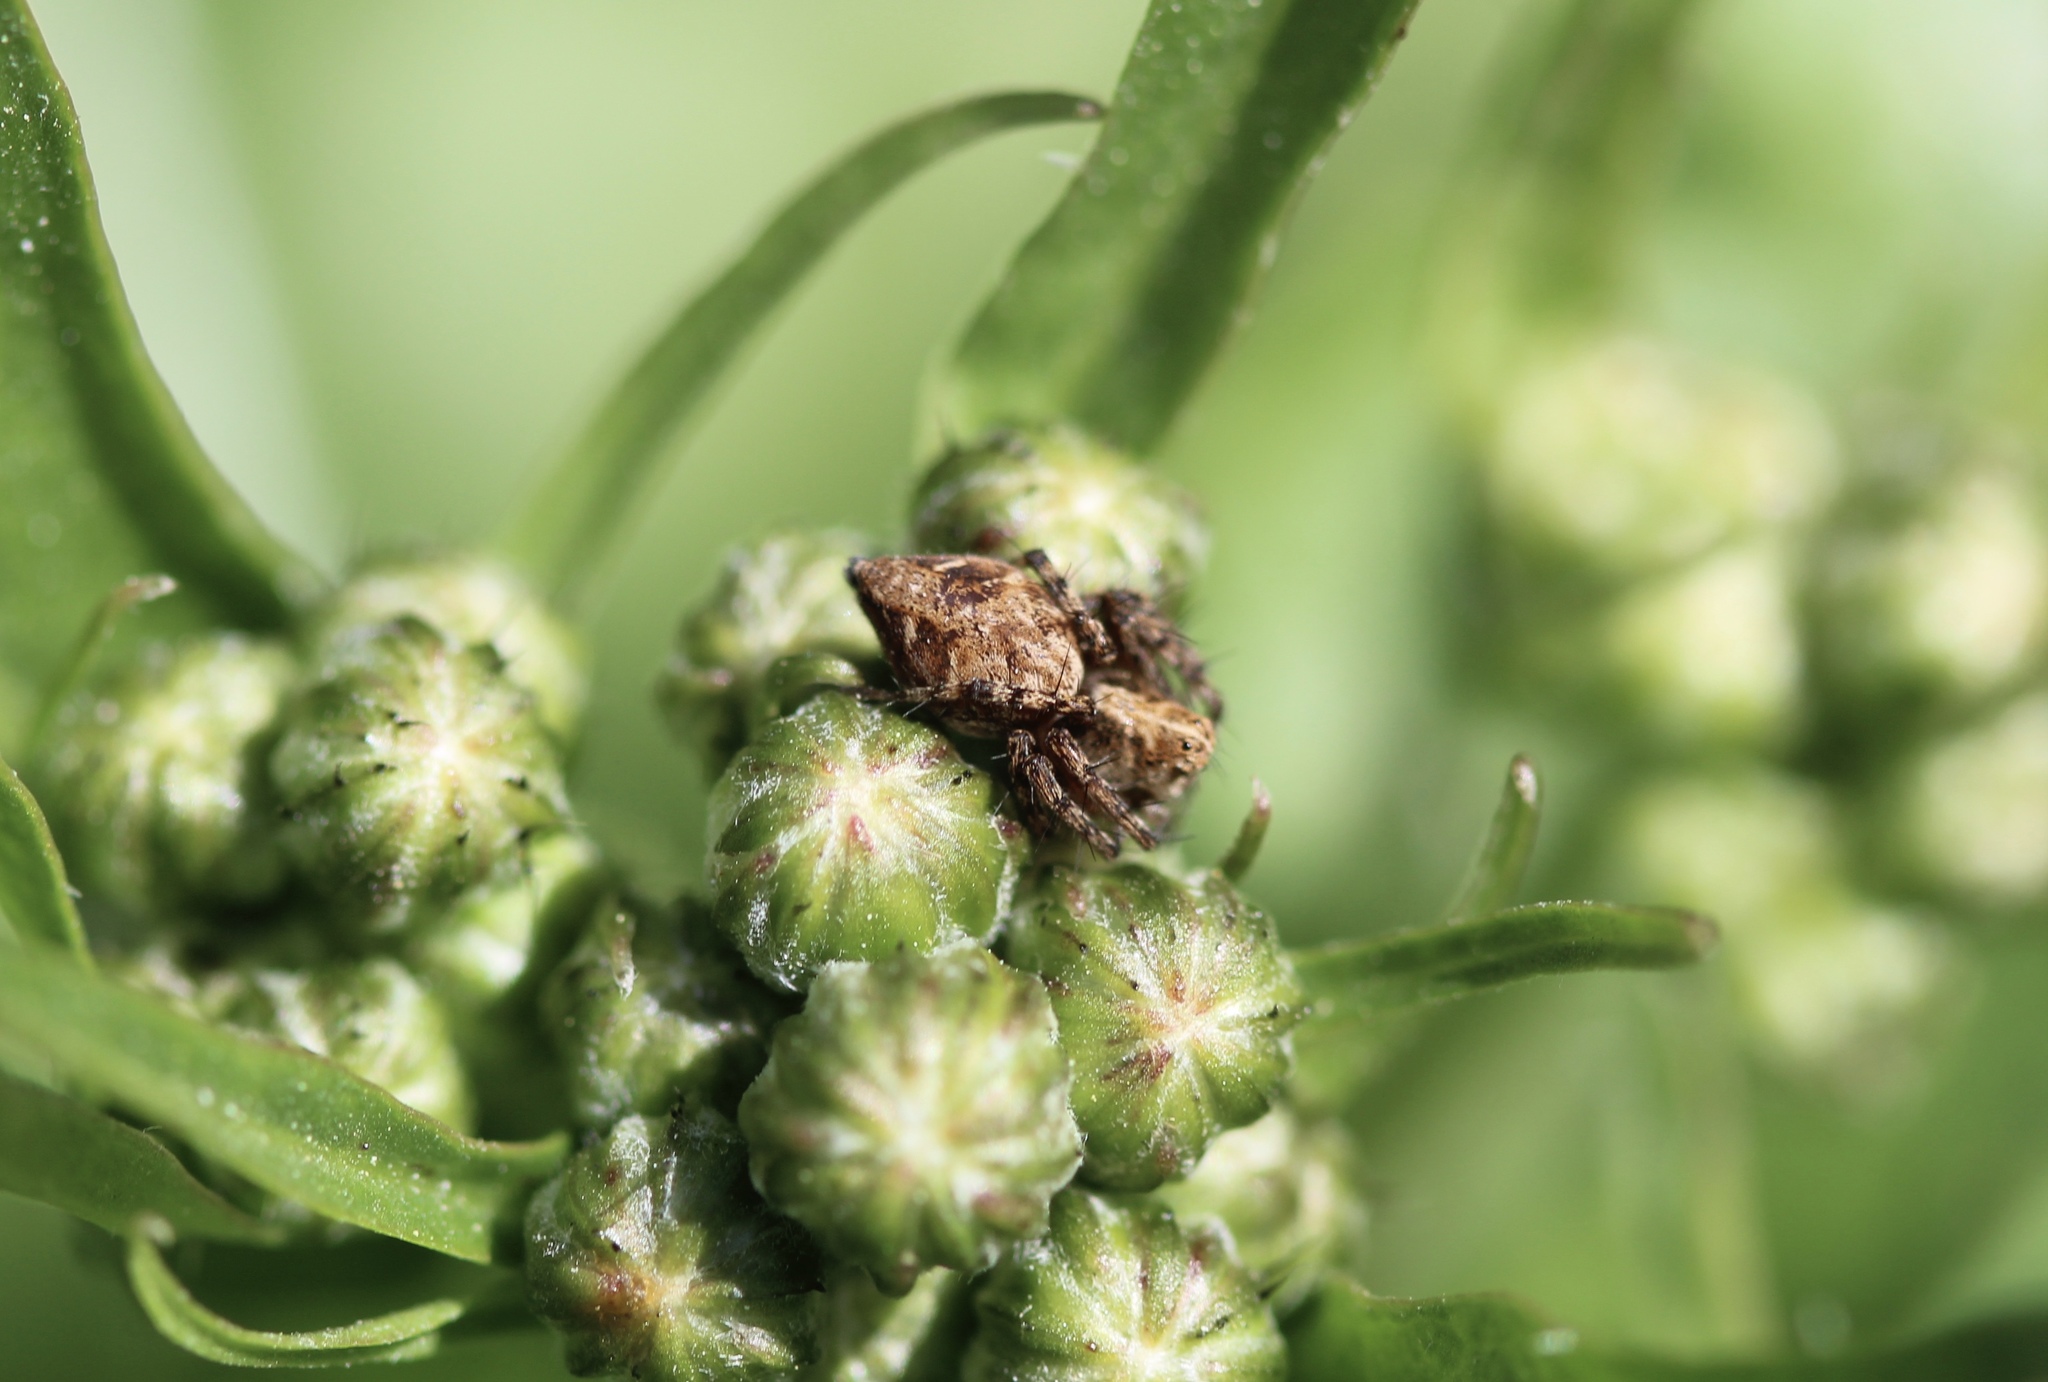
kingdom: Animalia
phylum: Arthropoda
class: Arachnida
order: Araneae
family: Oxyopidae
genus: Oxyopes
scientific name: Oxyopes scalaris
